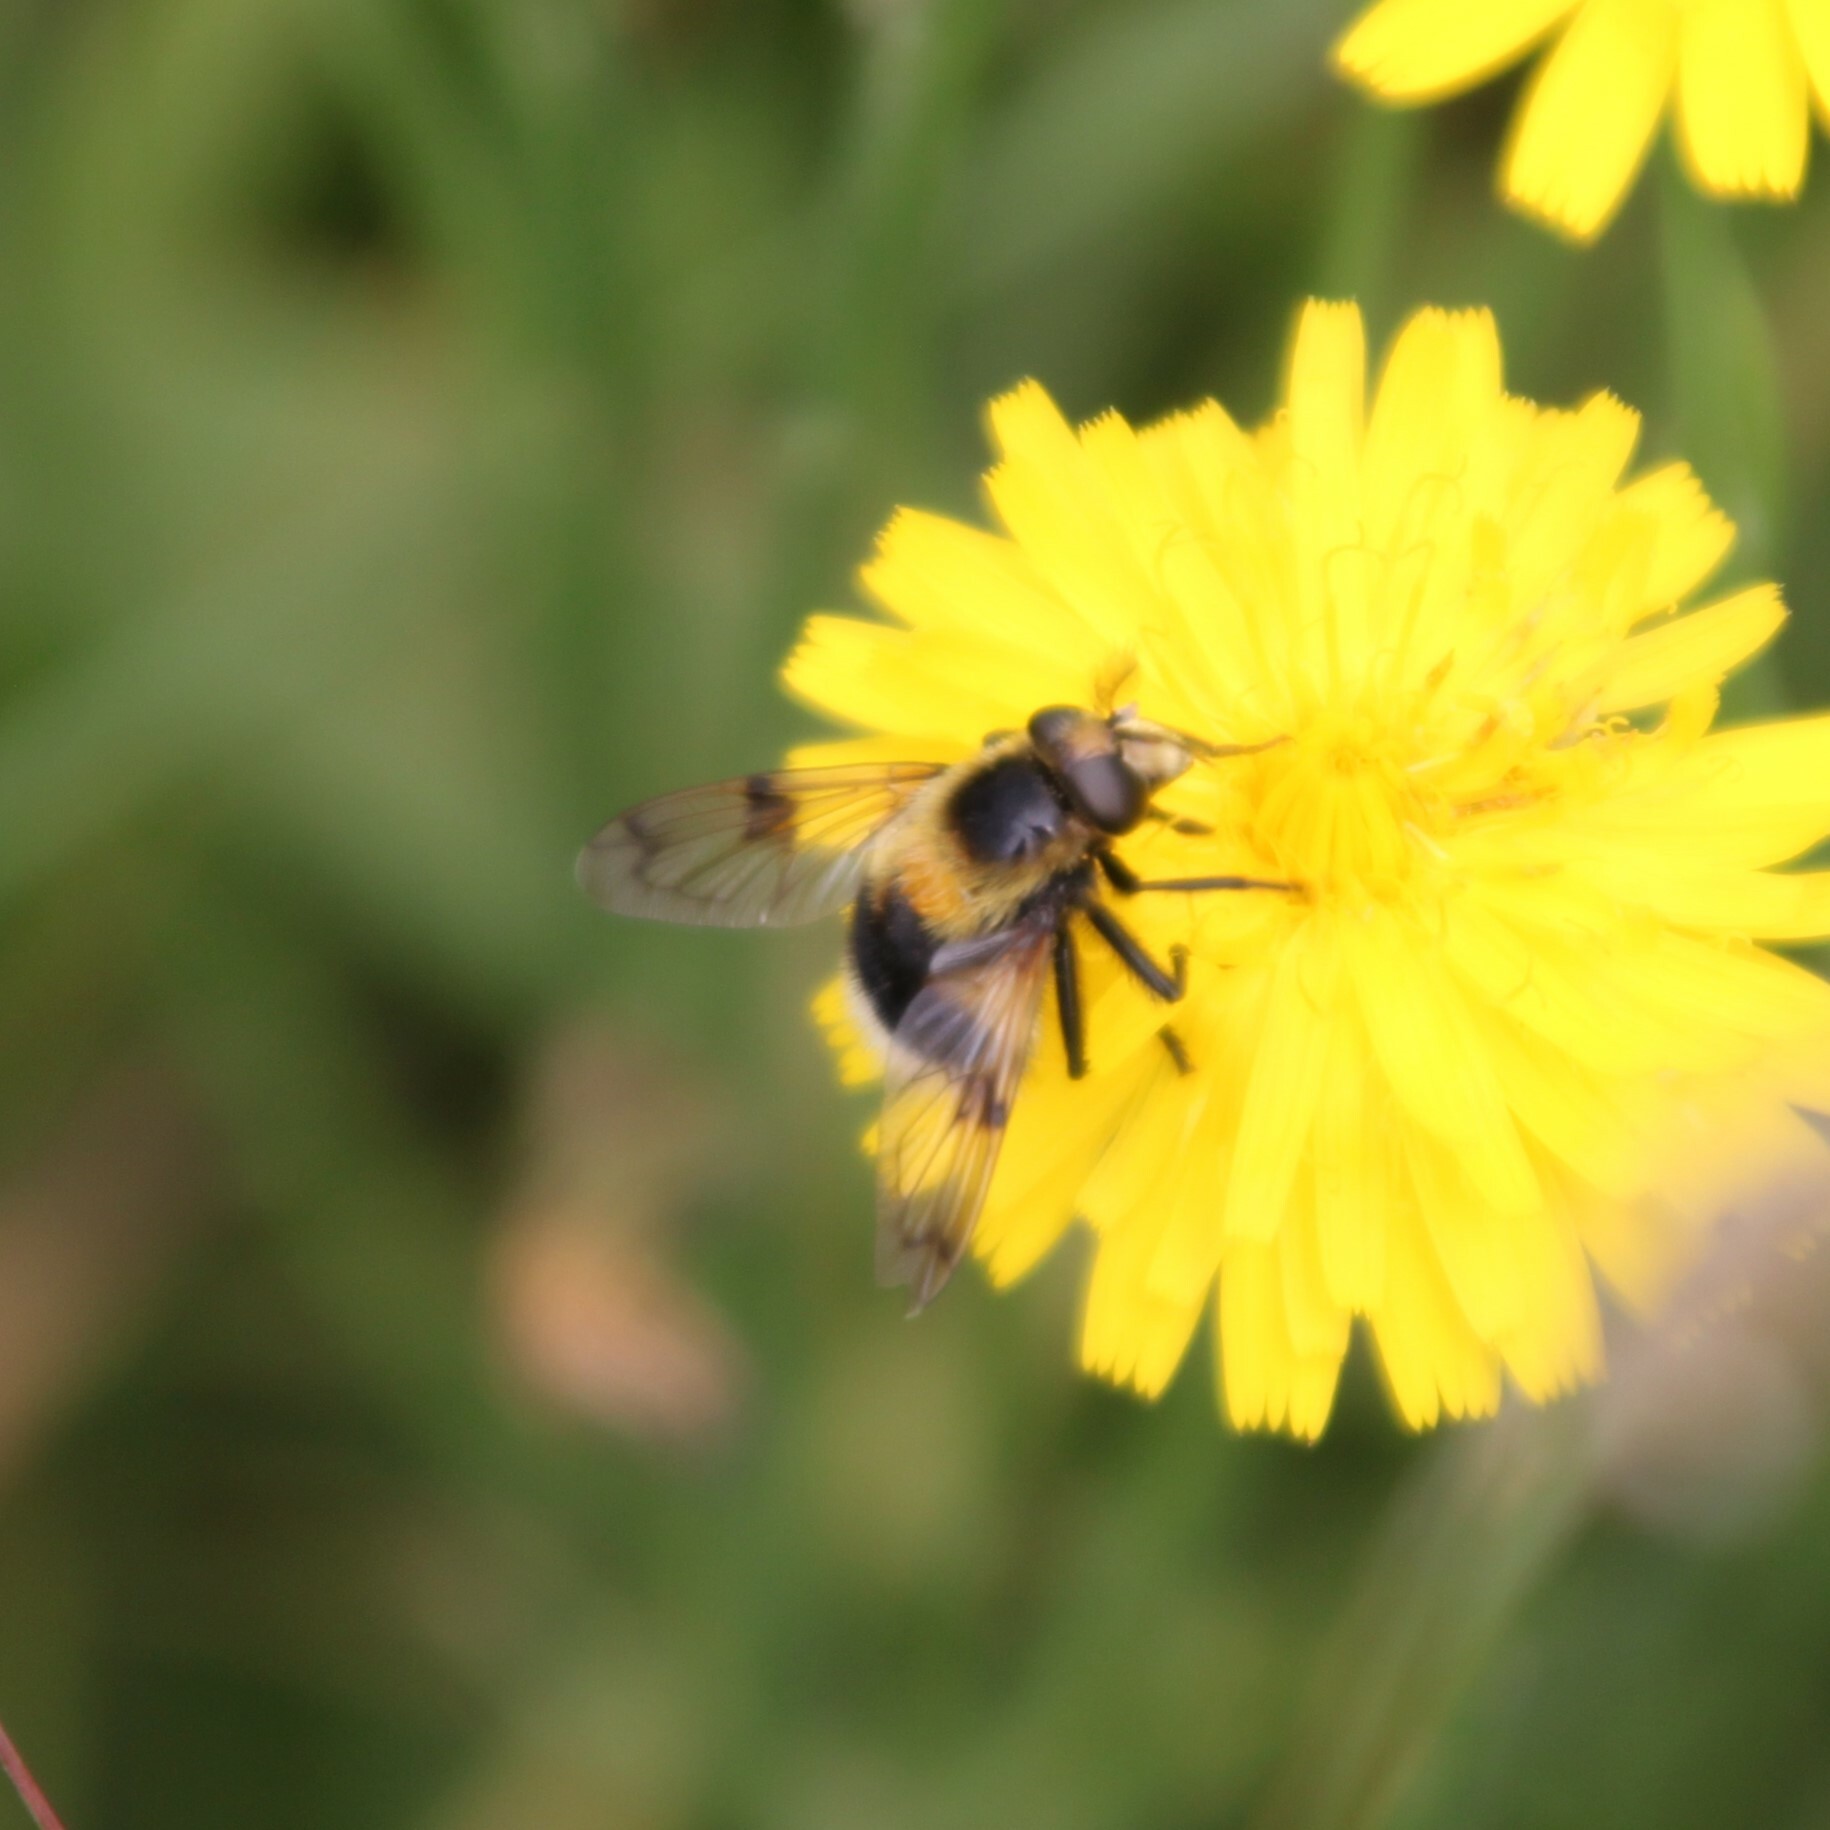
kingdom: Animalia
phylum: Arthropoda
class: Insecta
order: Diptera
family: Syrphidae
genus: Volucella
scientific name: Volucella bombylans
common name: Bumble bee hover fly
